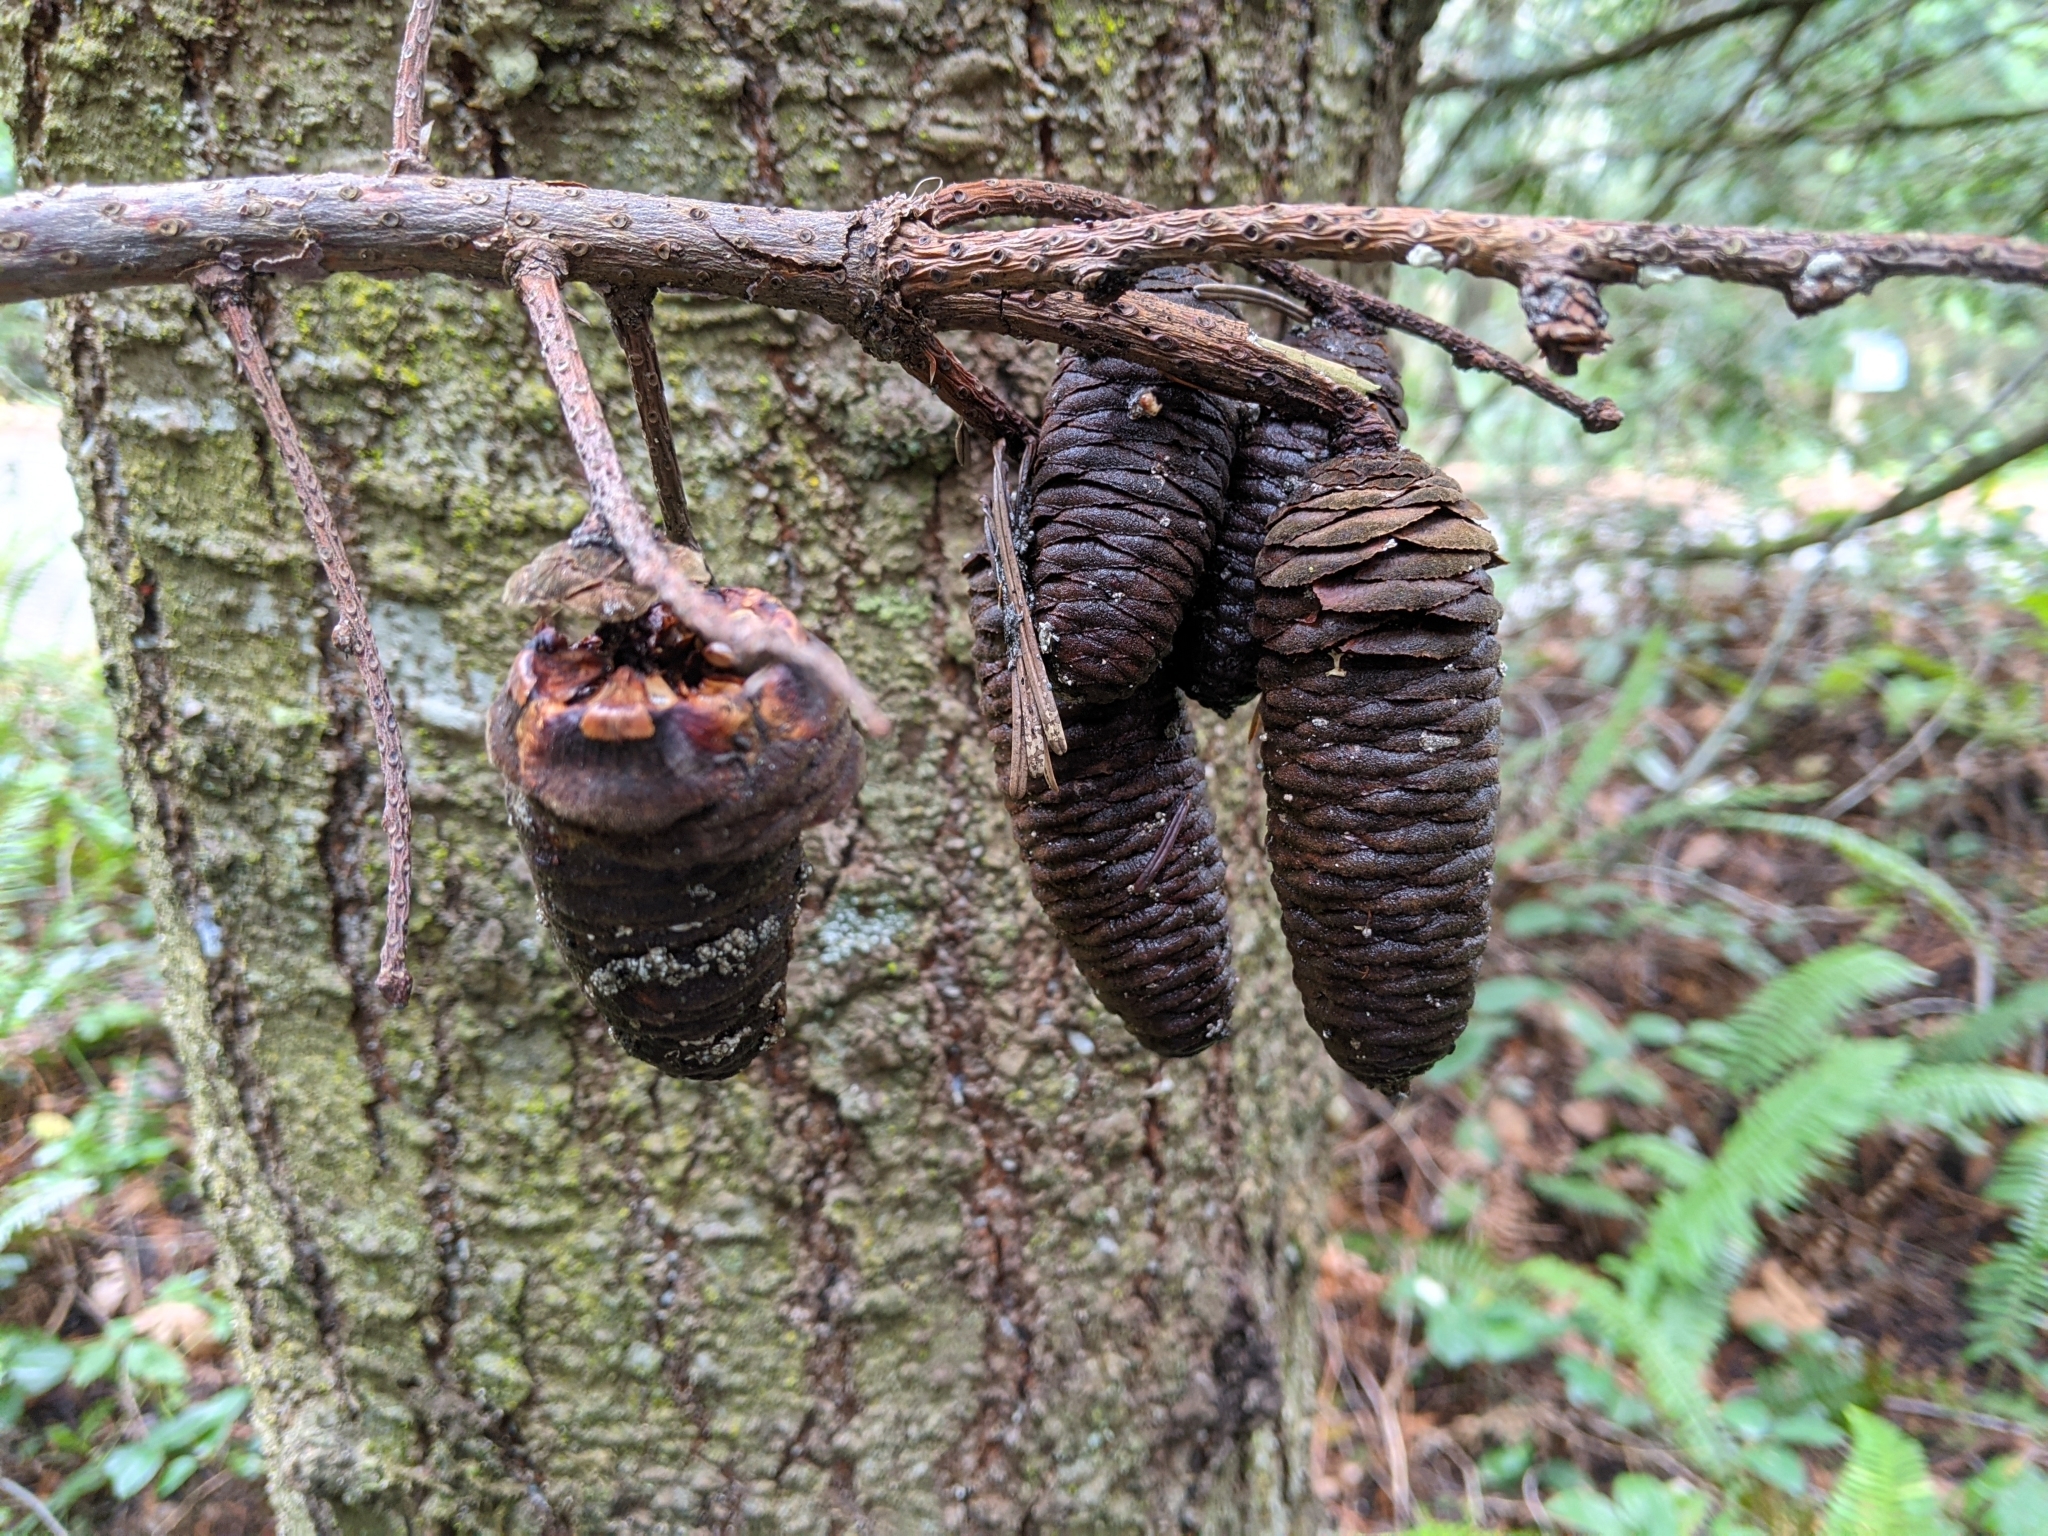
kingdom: Plantae
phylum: Tracheophyta
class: Pinopsida
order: Pinales
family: Pinaceae
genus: Abies
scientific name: Abies grandis
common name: Giant fir
